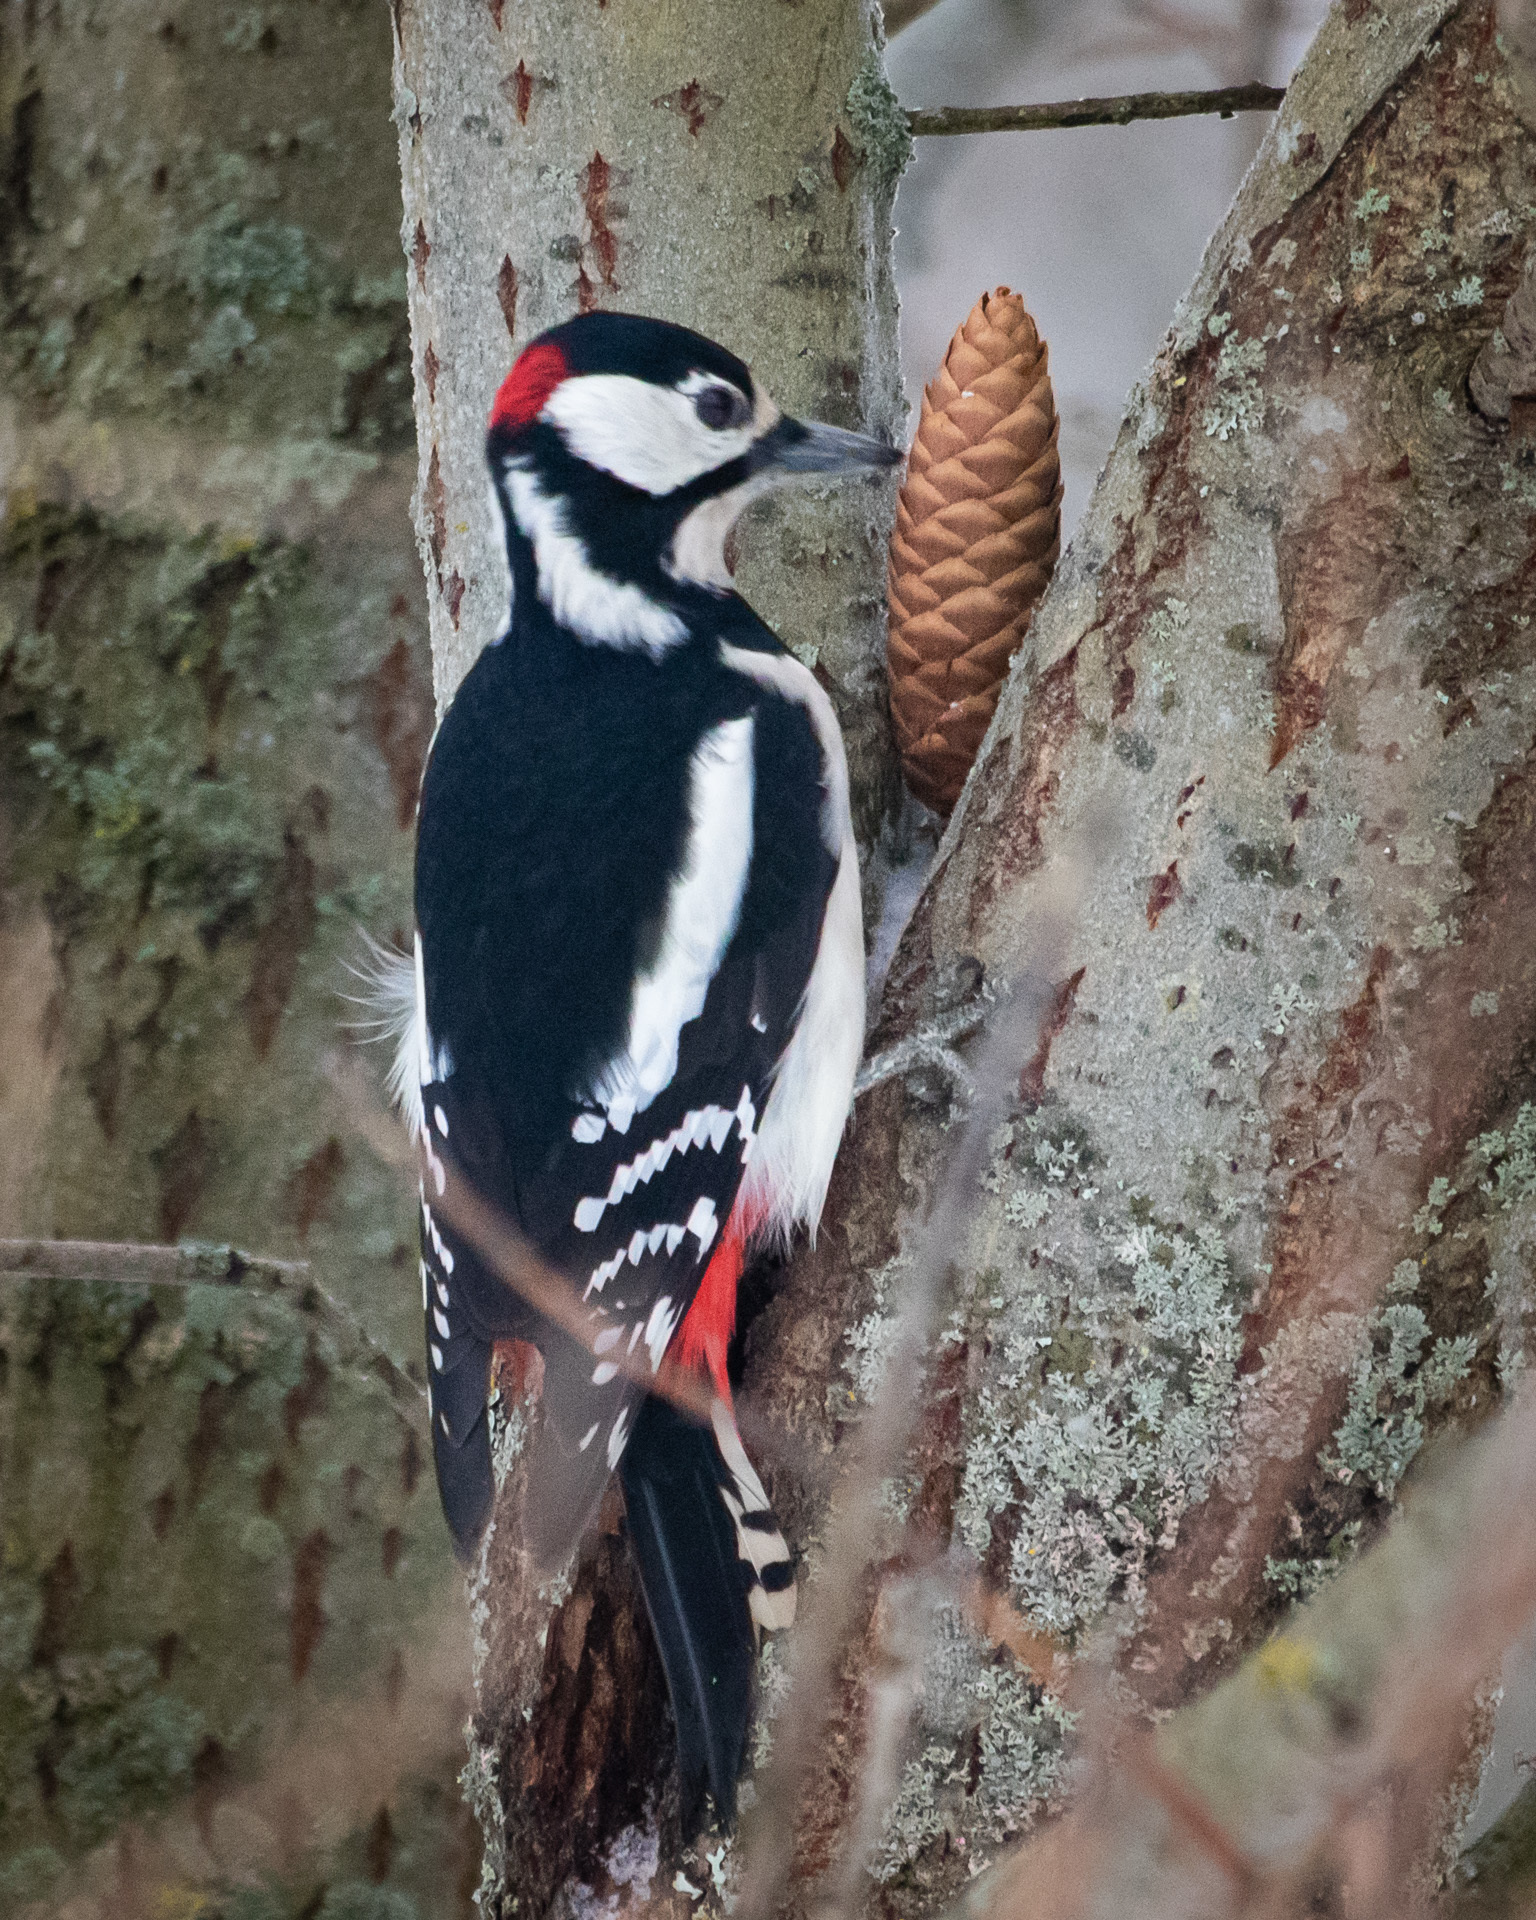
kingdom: Animalia
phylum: Chordata
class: Aves
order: Piciformes
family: Picidae
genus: Dendrocopos
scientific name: Dendrocopos major
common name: Great spotted woodpecker
